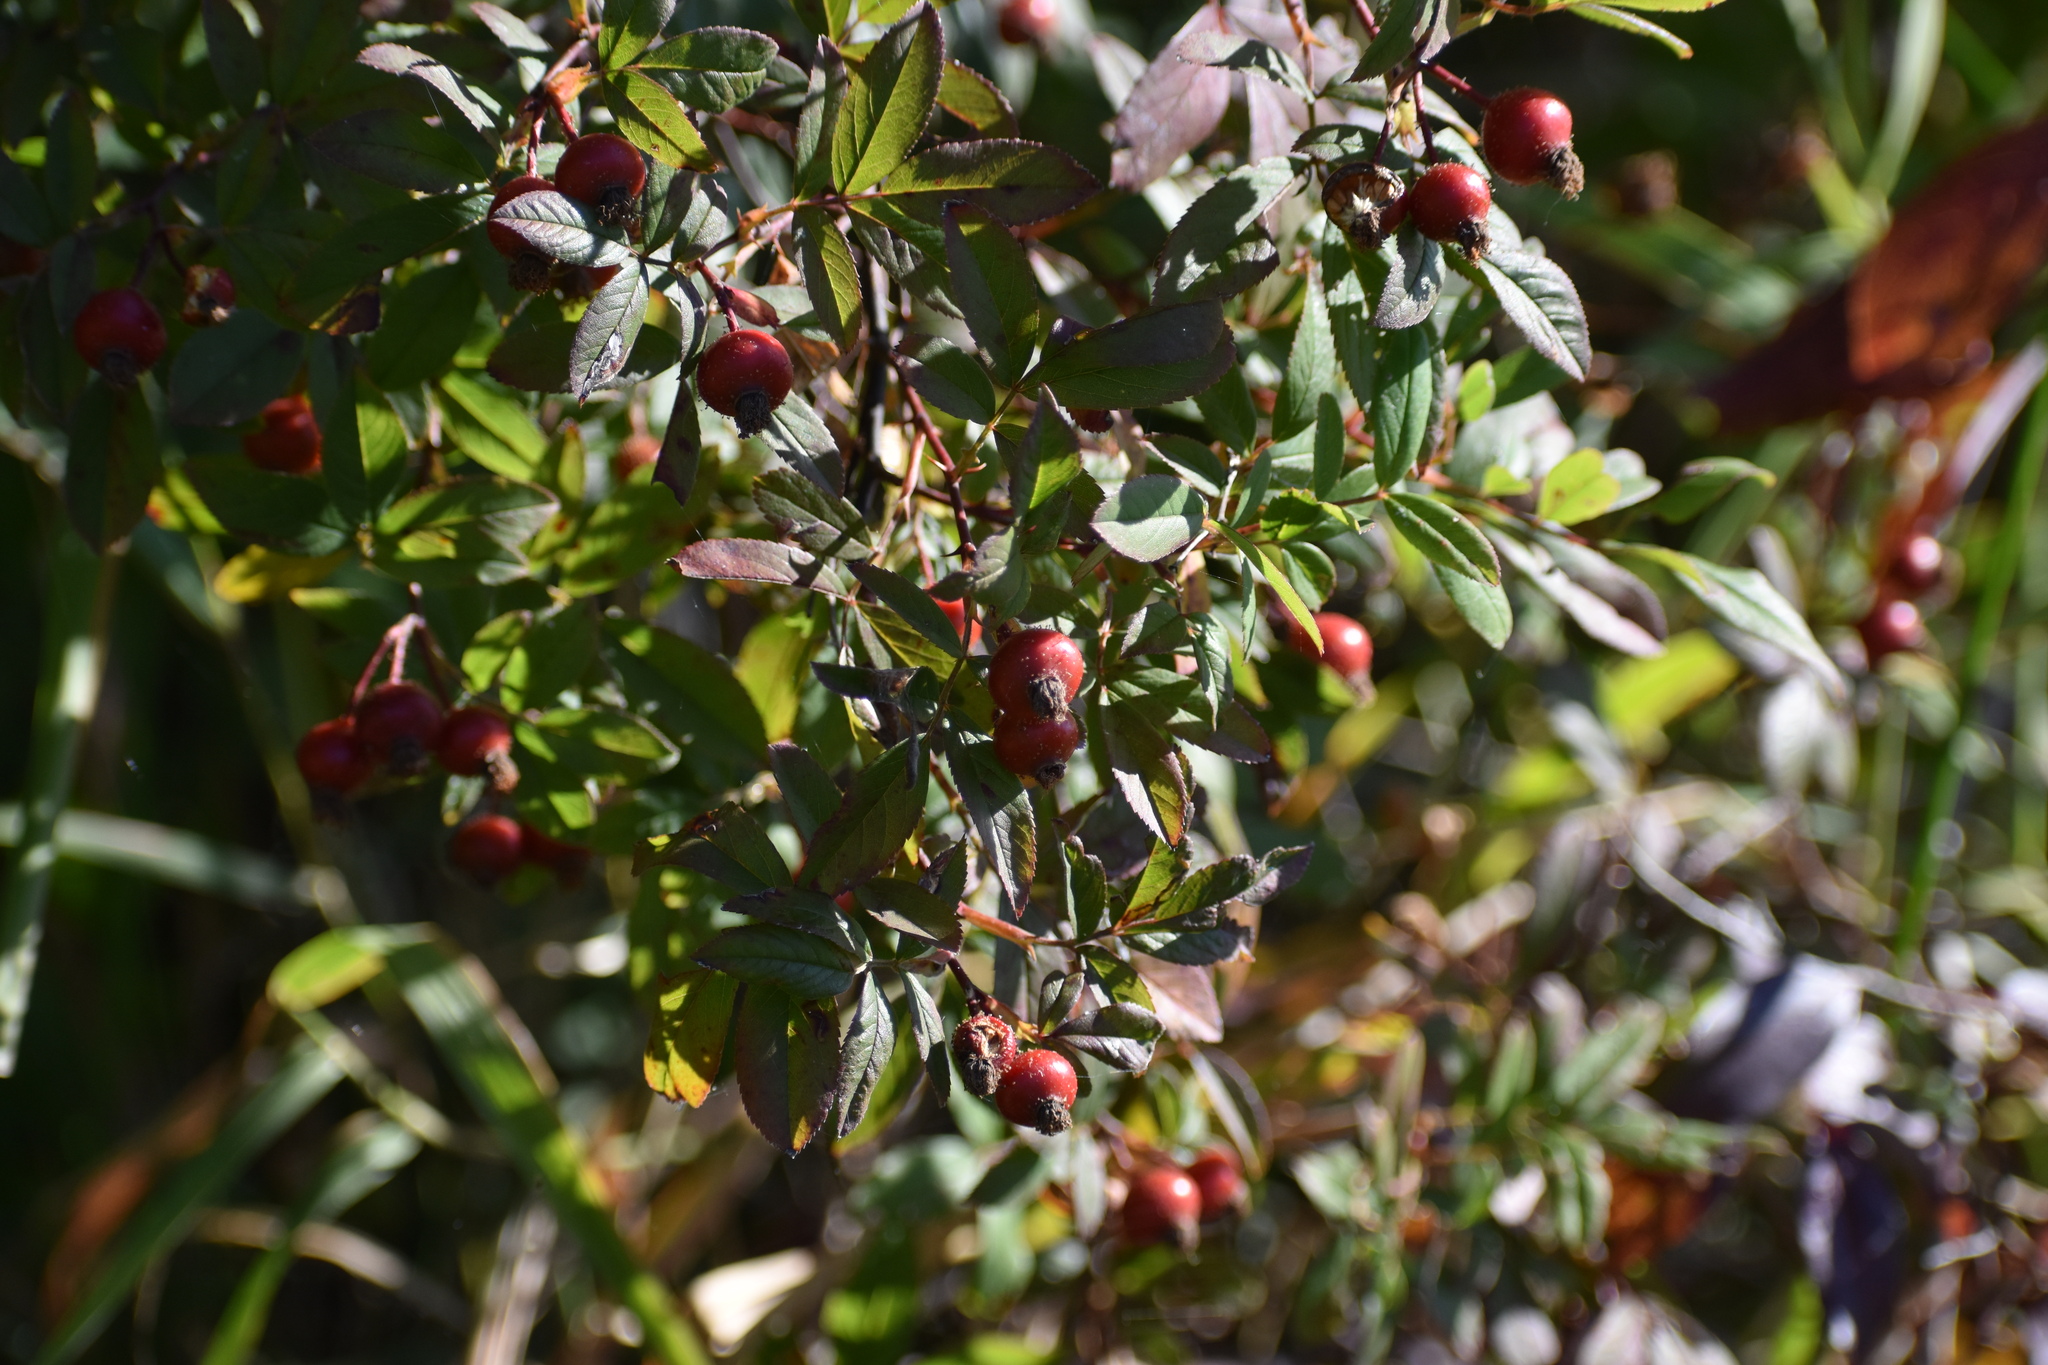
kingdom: Plantae
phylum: Tracheophyta
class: Magnoliopsida
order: Rosales
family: Rosaceae
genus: Rosa
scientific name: Rosa palustris
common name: Swamp rose
